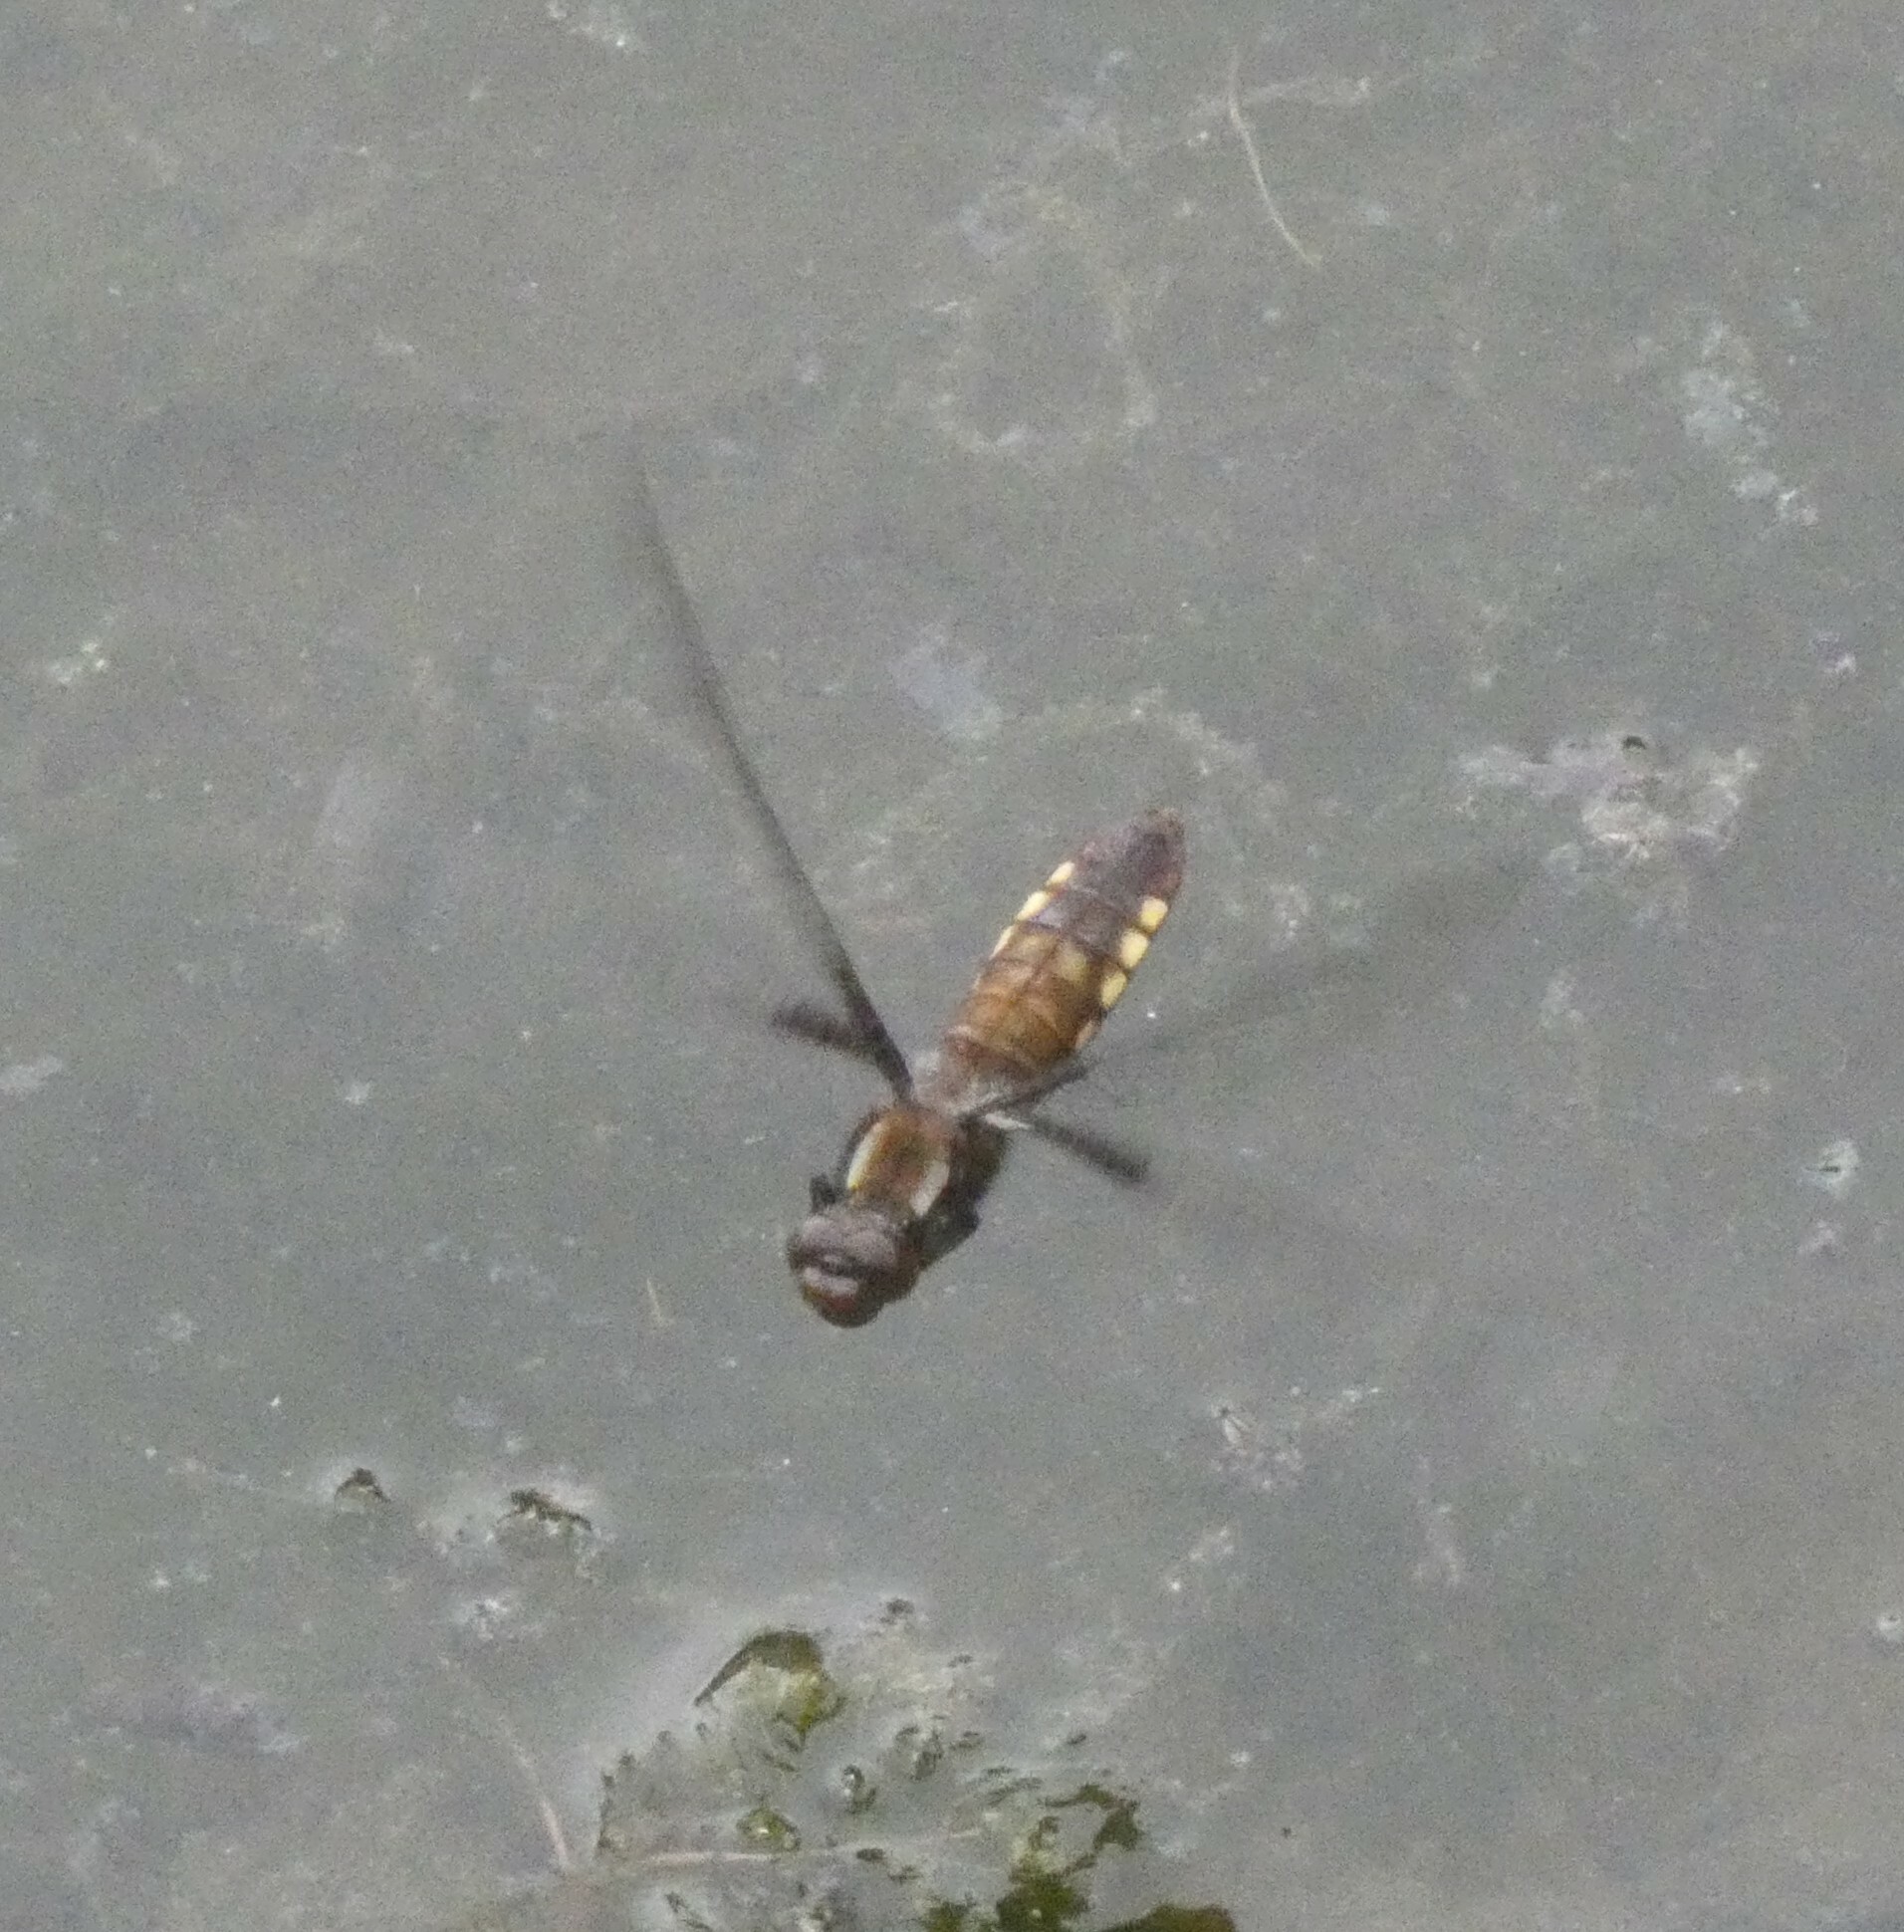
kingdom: Animalia
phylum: Arthropoda
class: Insecta
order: Odonata
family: Libellulidae
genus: Libellula
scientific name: Libellula depressa
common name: Broad-bodied chaser
